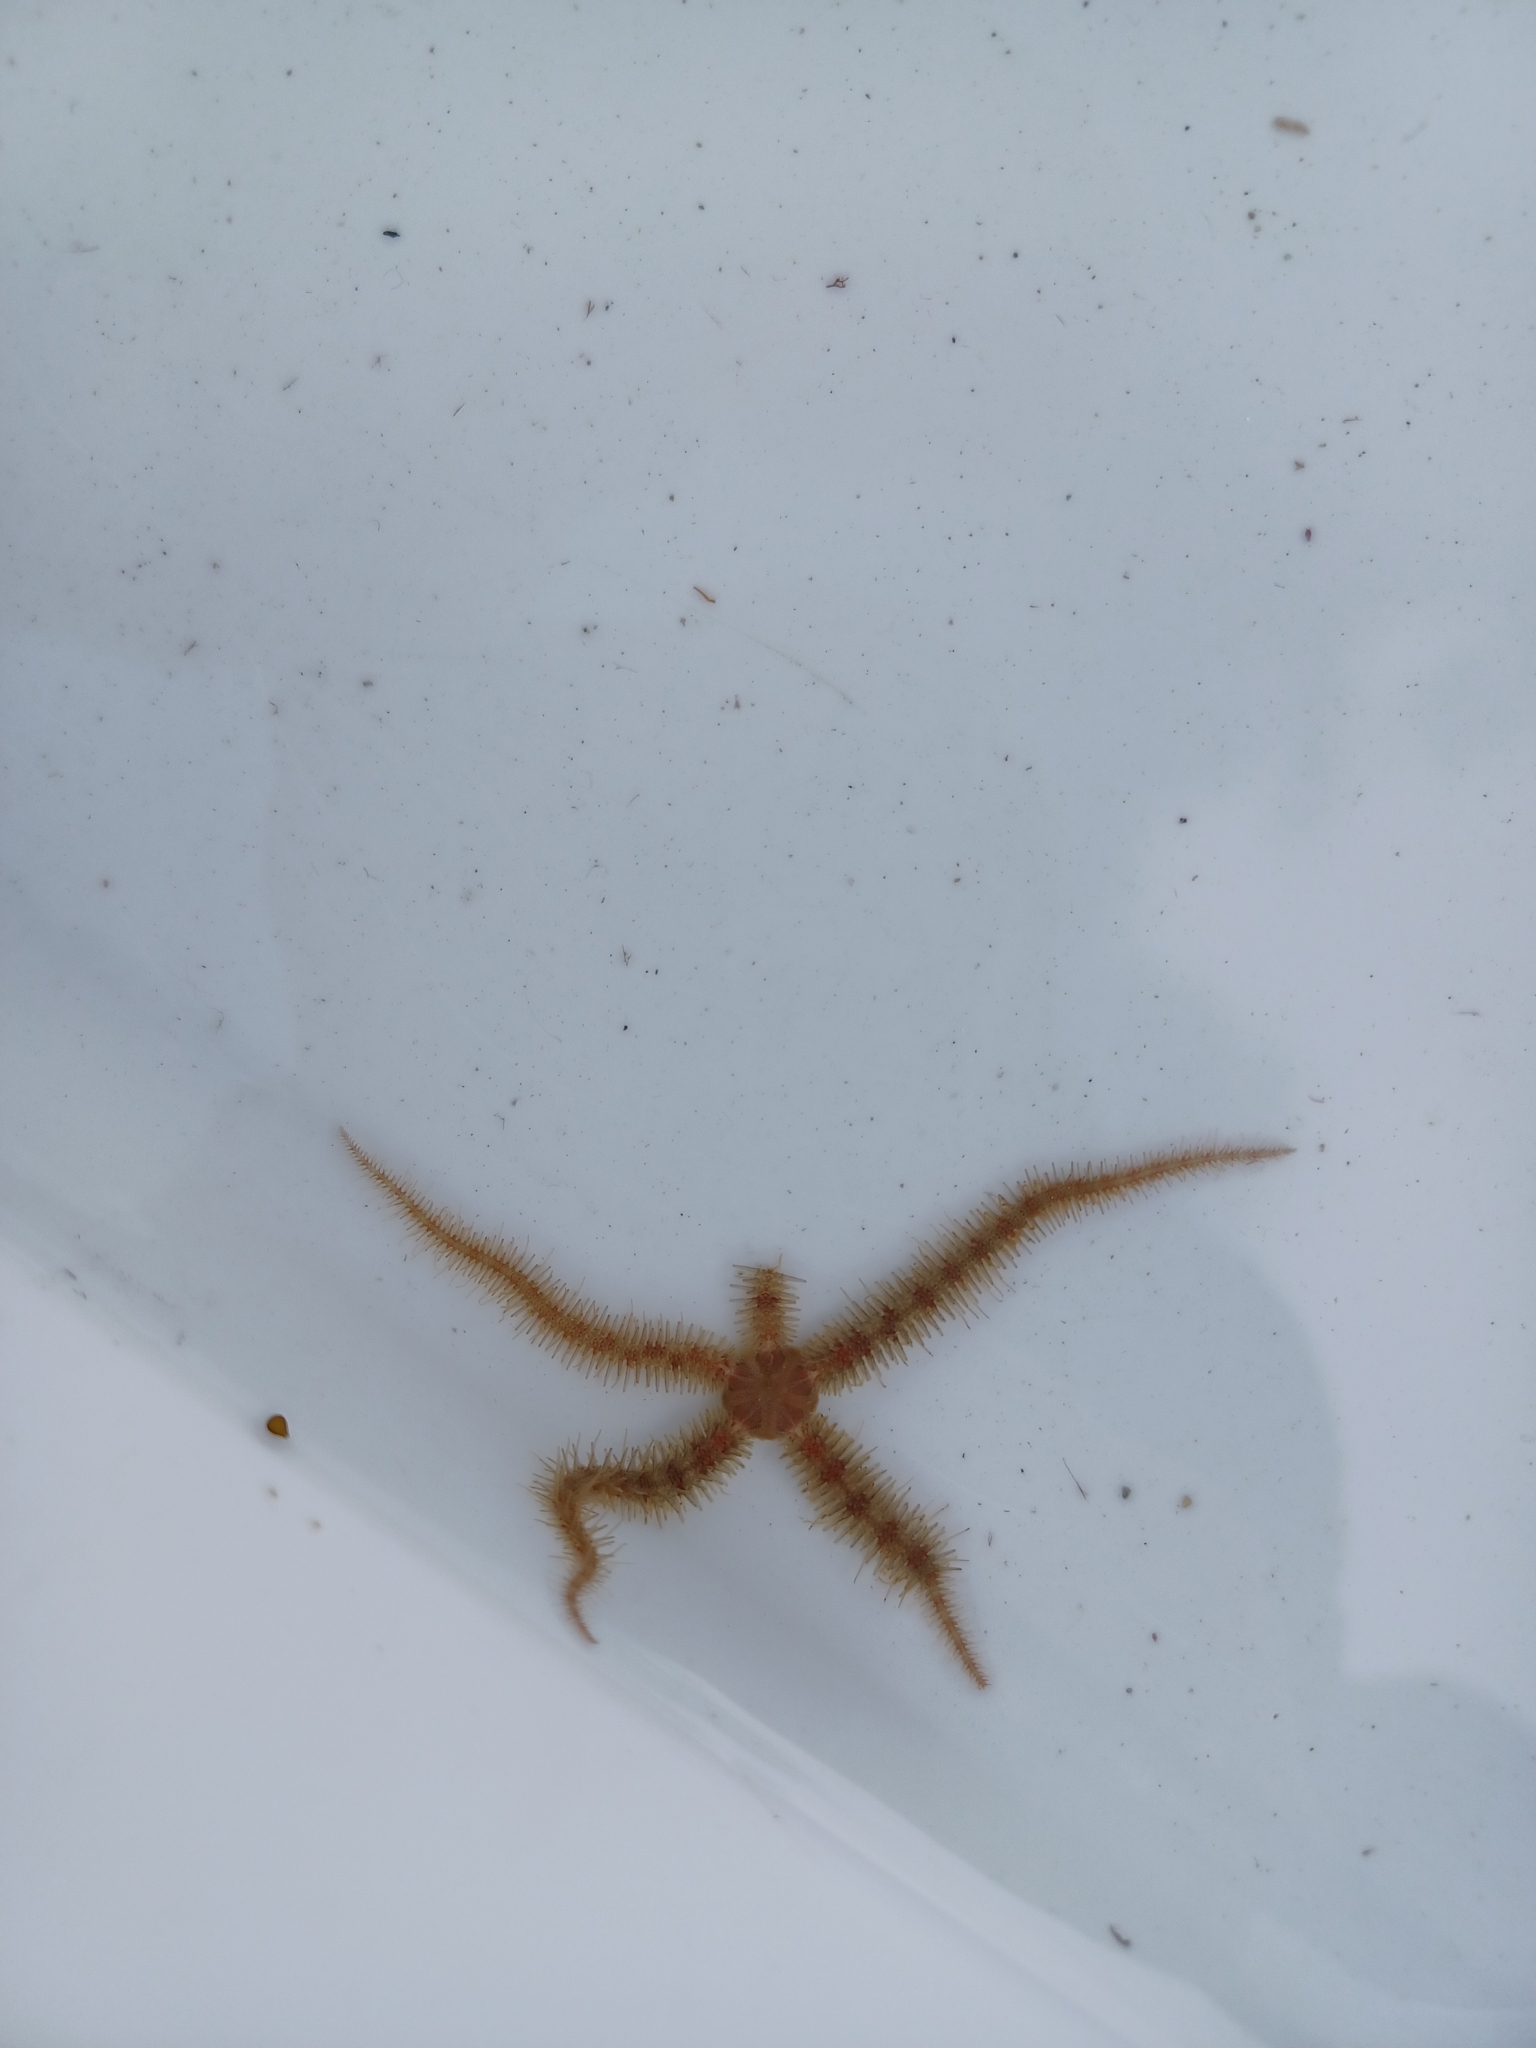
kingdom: Animalia
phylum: Echinodermata
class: Ophiuroidea
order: Amphilepidida
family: Ophiotrichidae
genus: Ophiothrix
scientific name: Ophiothrix fragilis
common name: Common brittlestar
